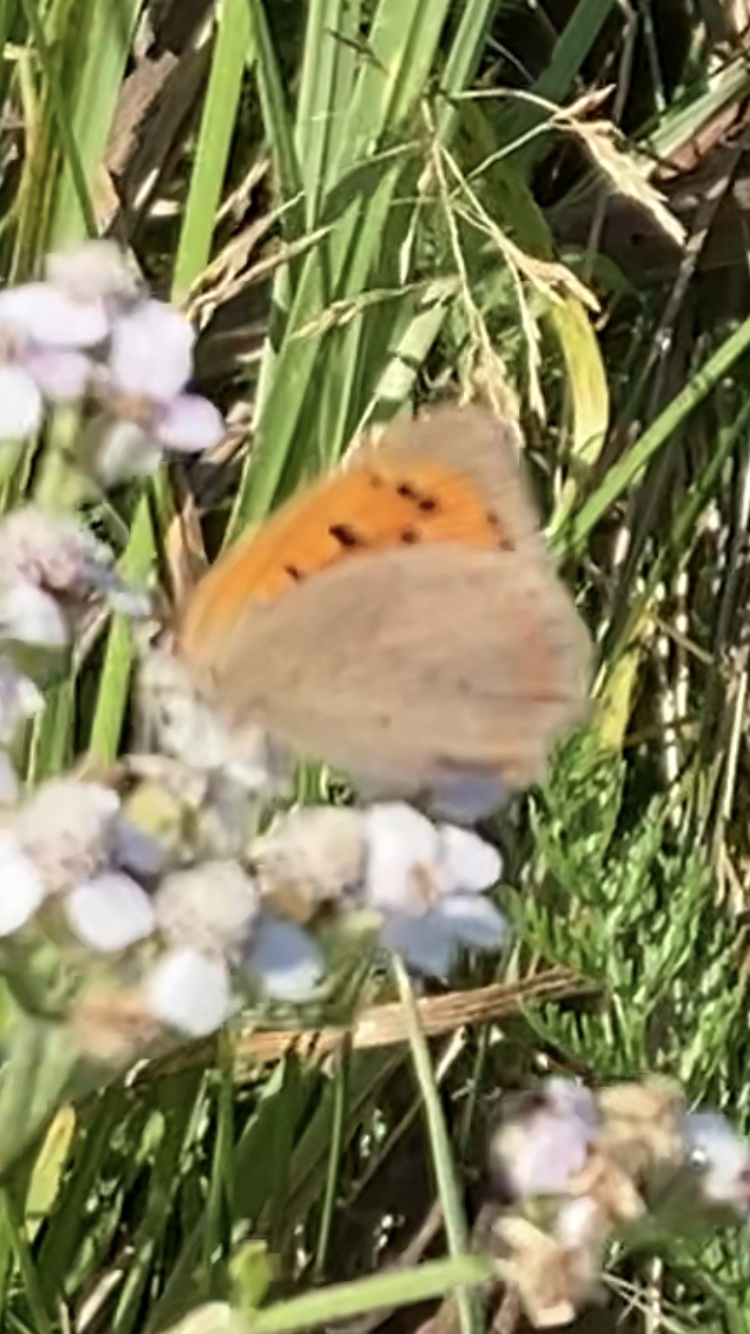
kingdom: Animalia
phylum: Arthropoda
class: Insecta
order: Lepidoptera
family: Lycaenidae
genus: Lycaena
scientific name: Lycaena phlaeas
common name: Small copper
